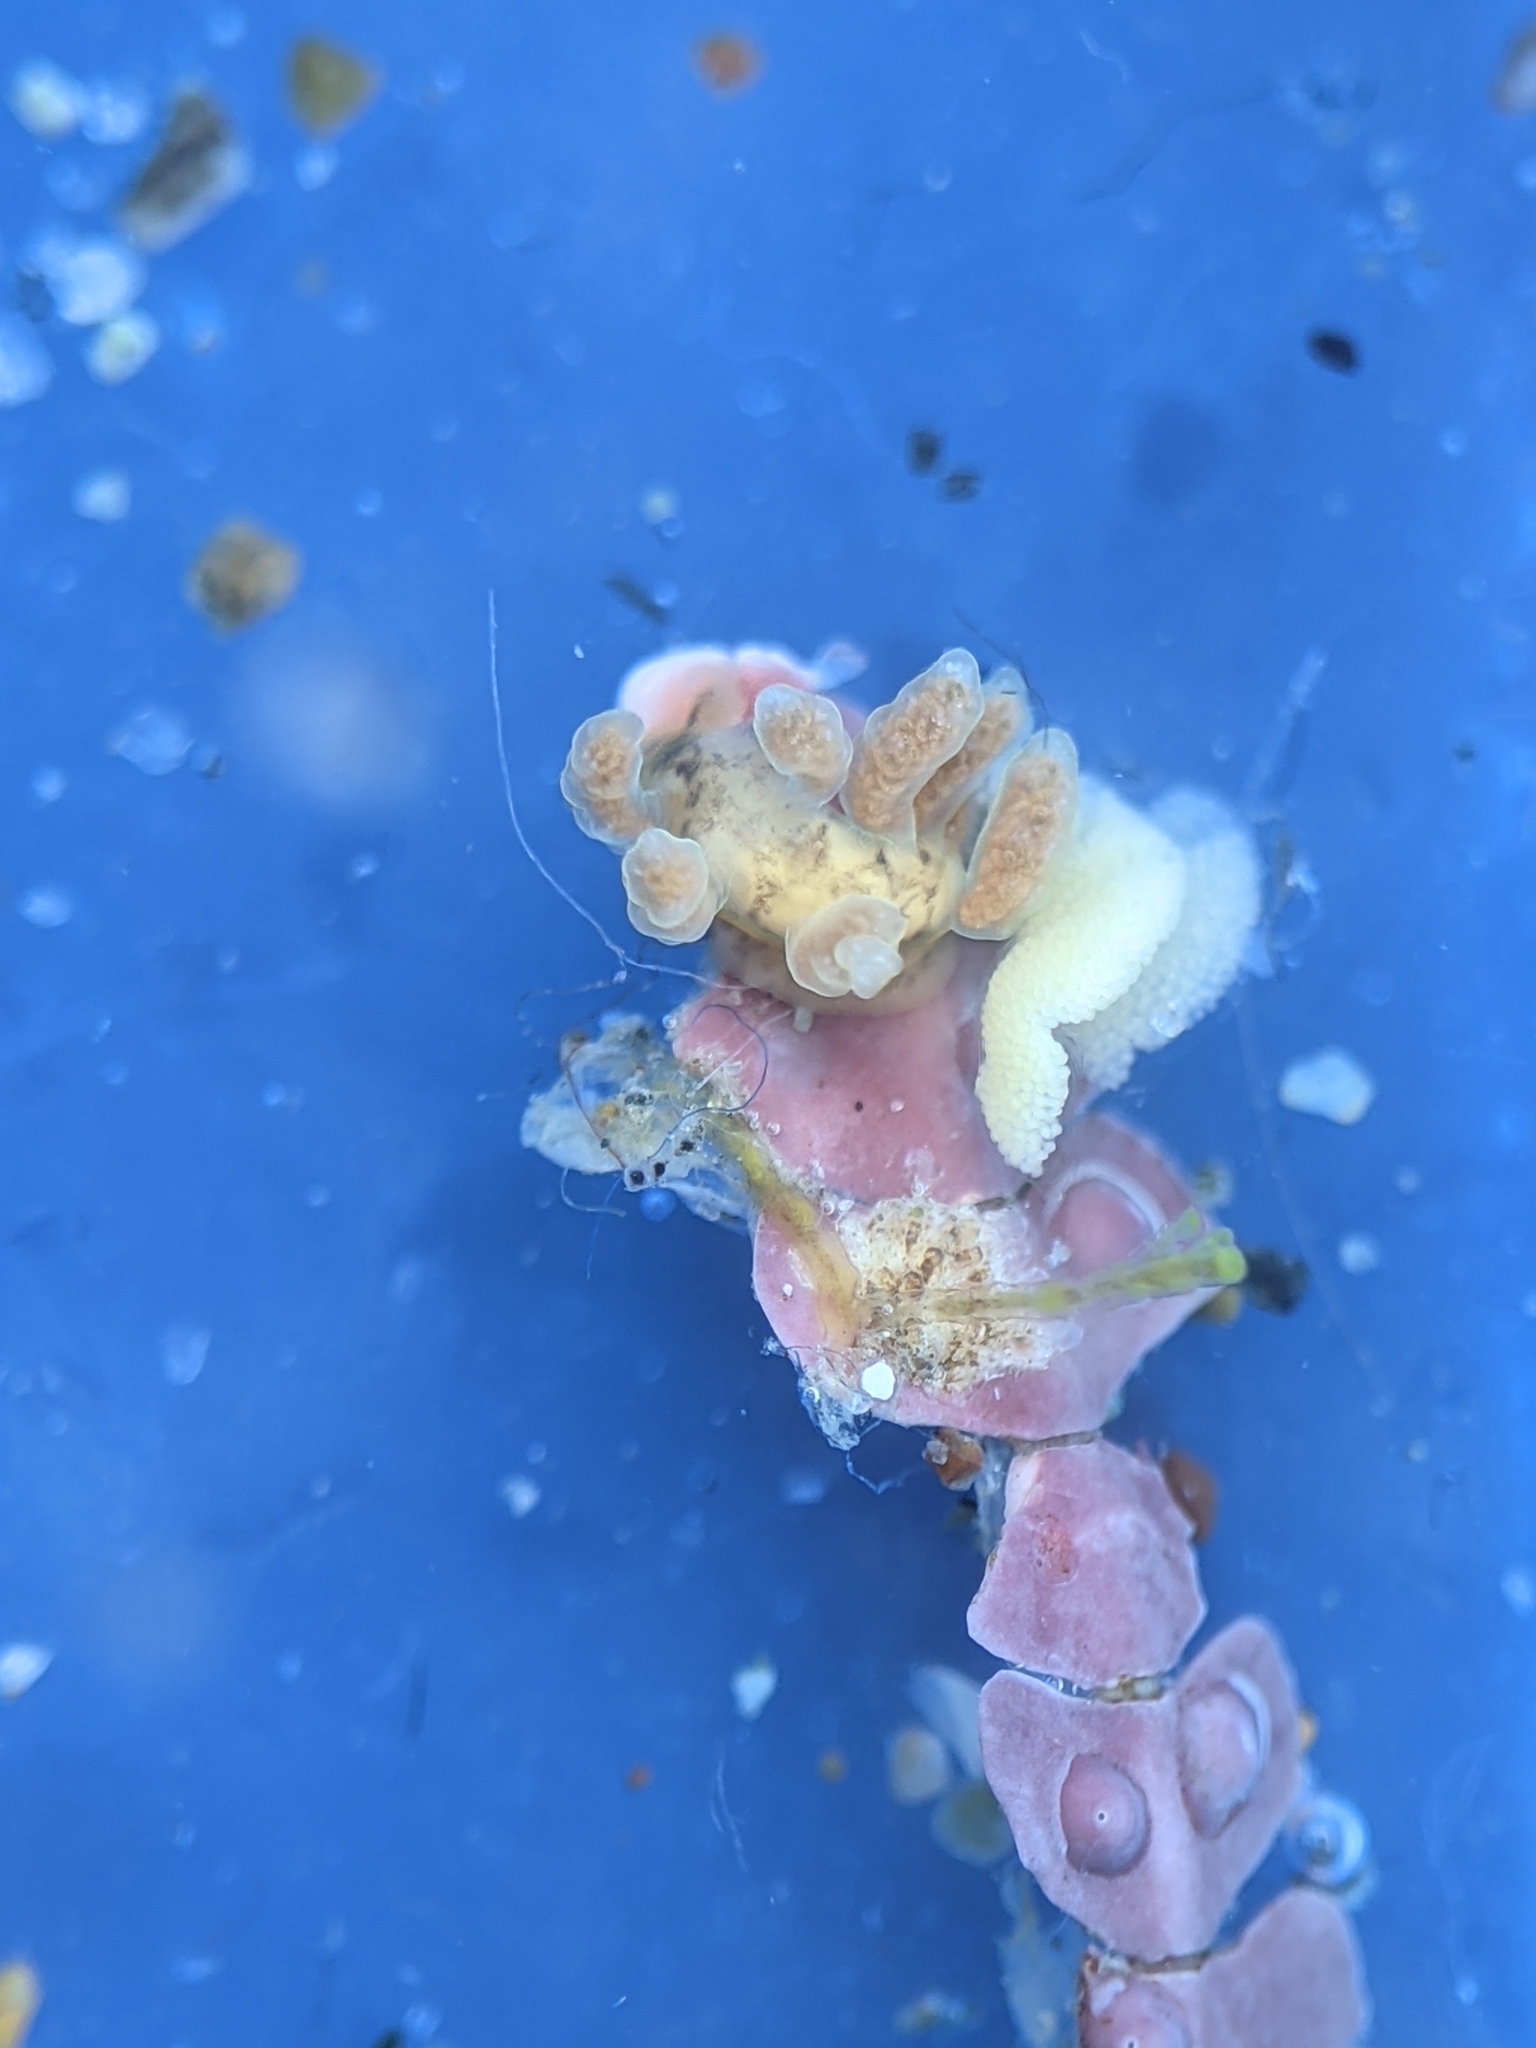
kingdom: Animalia
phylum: Mollusca
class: Gastropoda
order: Nudibranchia
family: Dotidae
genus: Doto
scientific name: Doto columbiana
